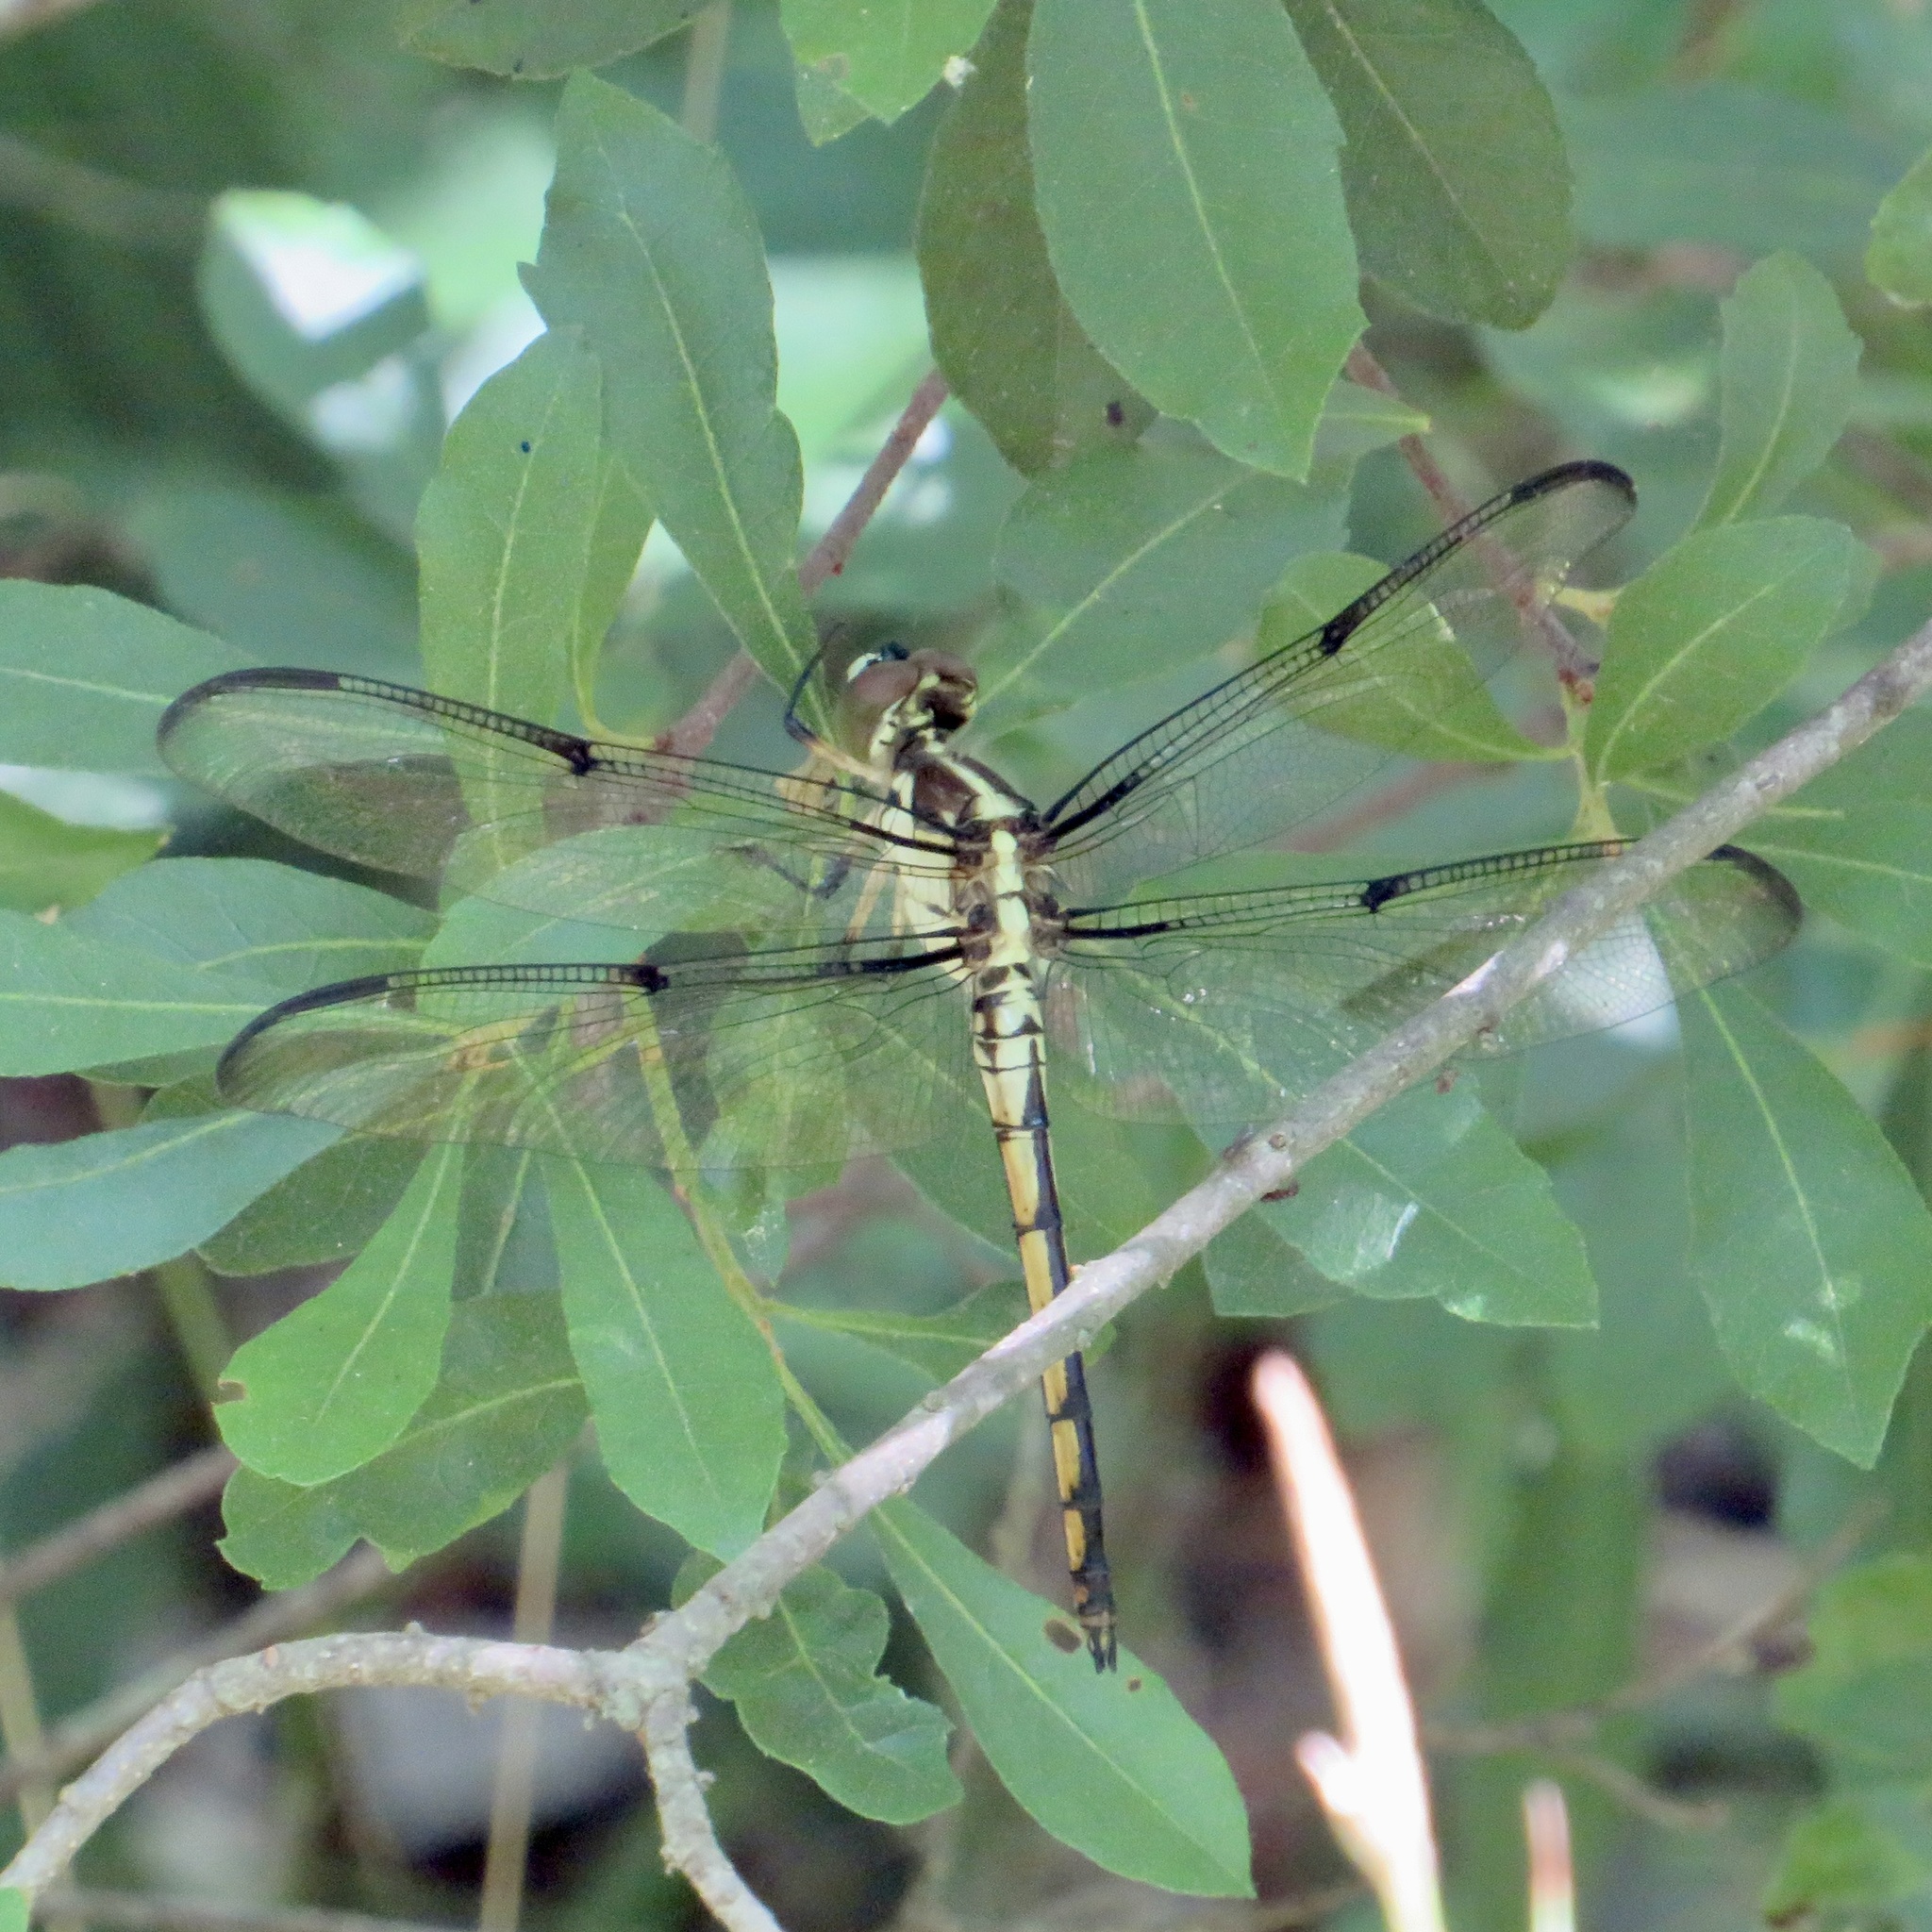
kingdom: Animalia
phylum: Arthropoda
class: Insecta
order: Odonata
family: Libellulidae
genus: Libellula
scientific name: Libellula vibrans
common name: Great blue skimmer
